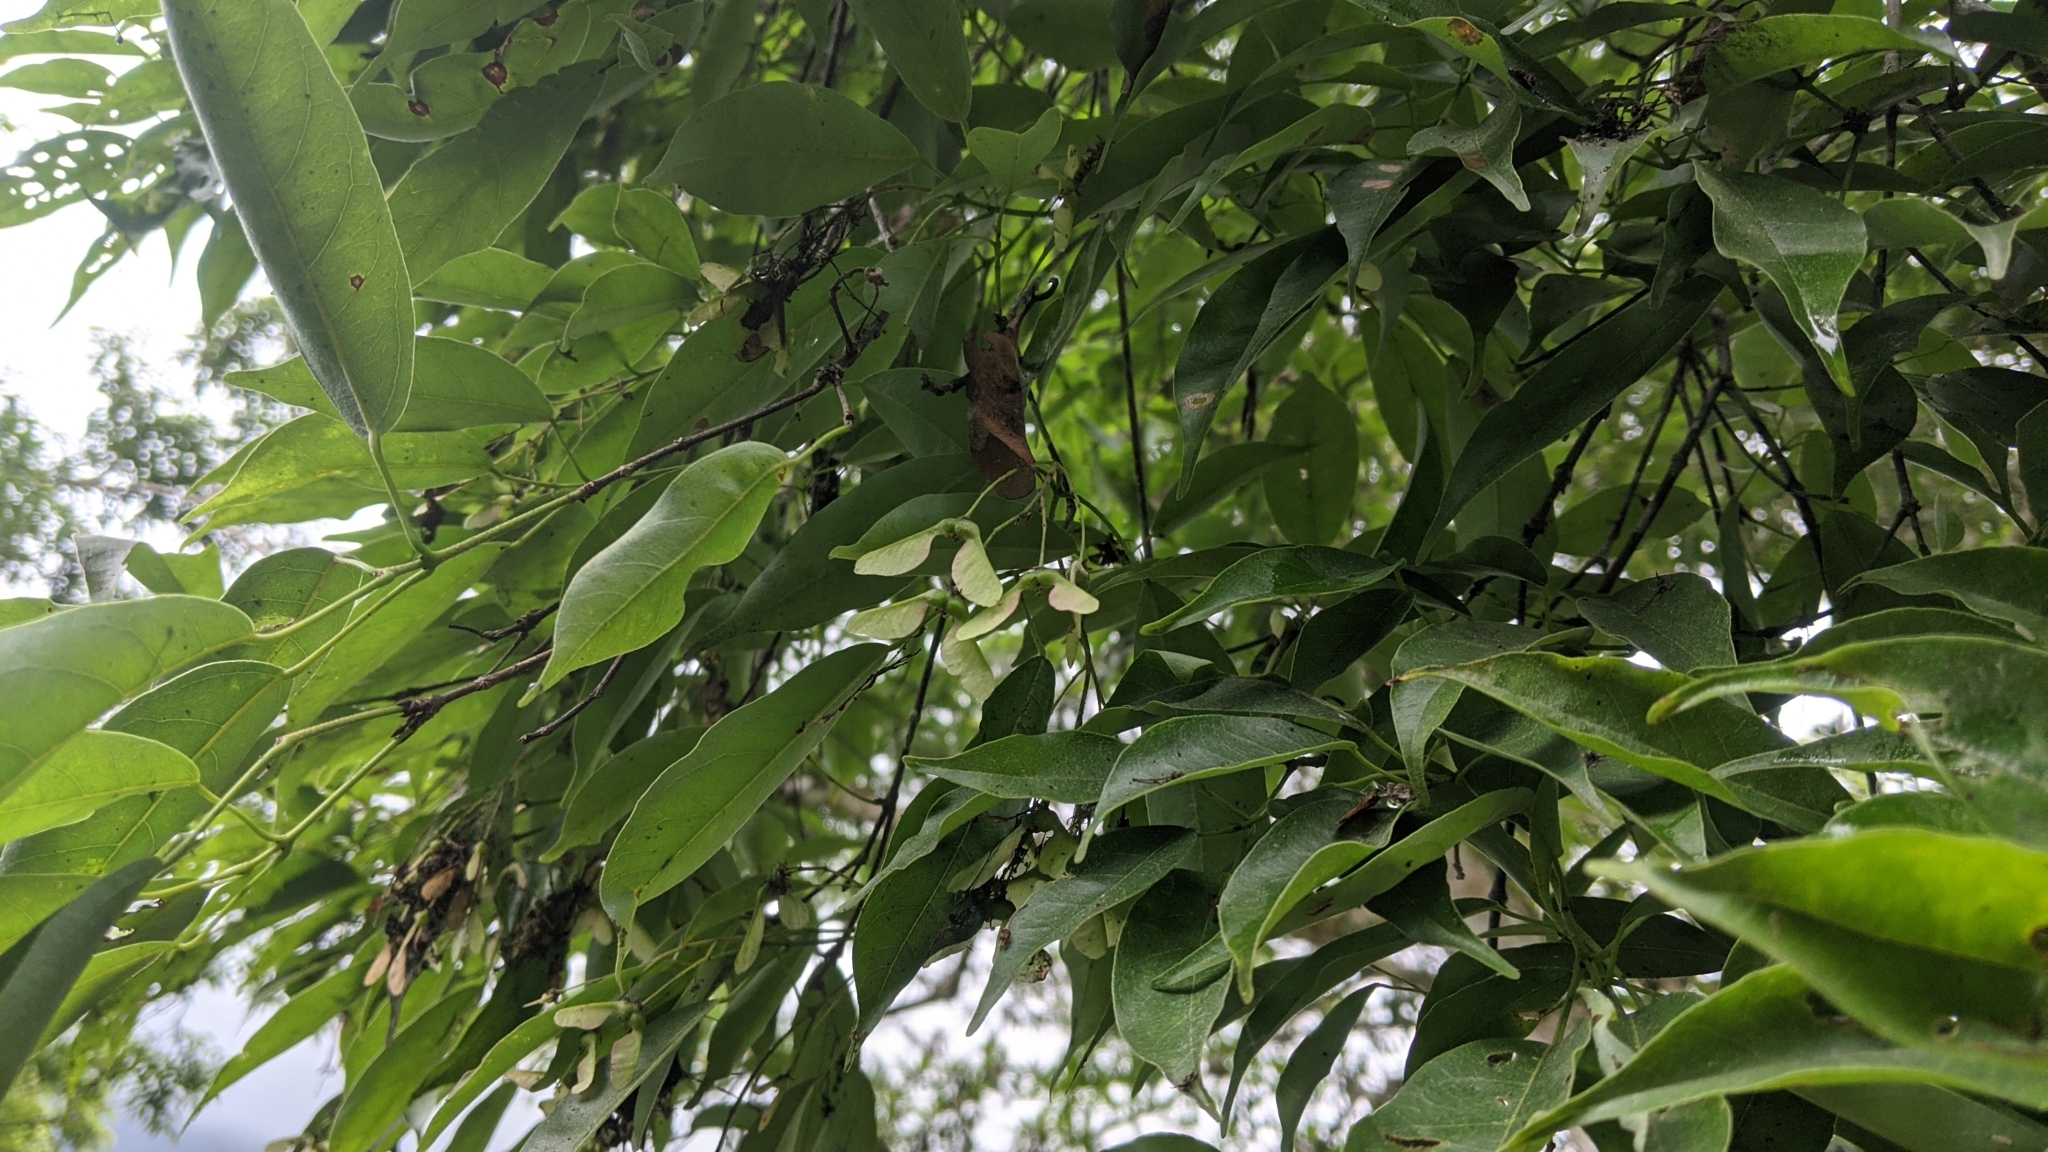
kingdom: Plantae
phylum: Tracheophyta
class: Magnoliopsida
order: Sapindales
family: Sapindaceae
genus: Acer
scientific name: Acer oblongum
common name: Himalayan maple
